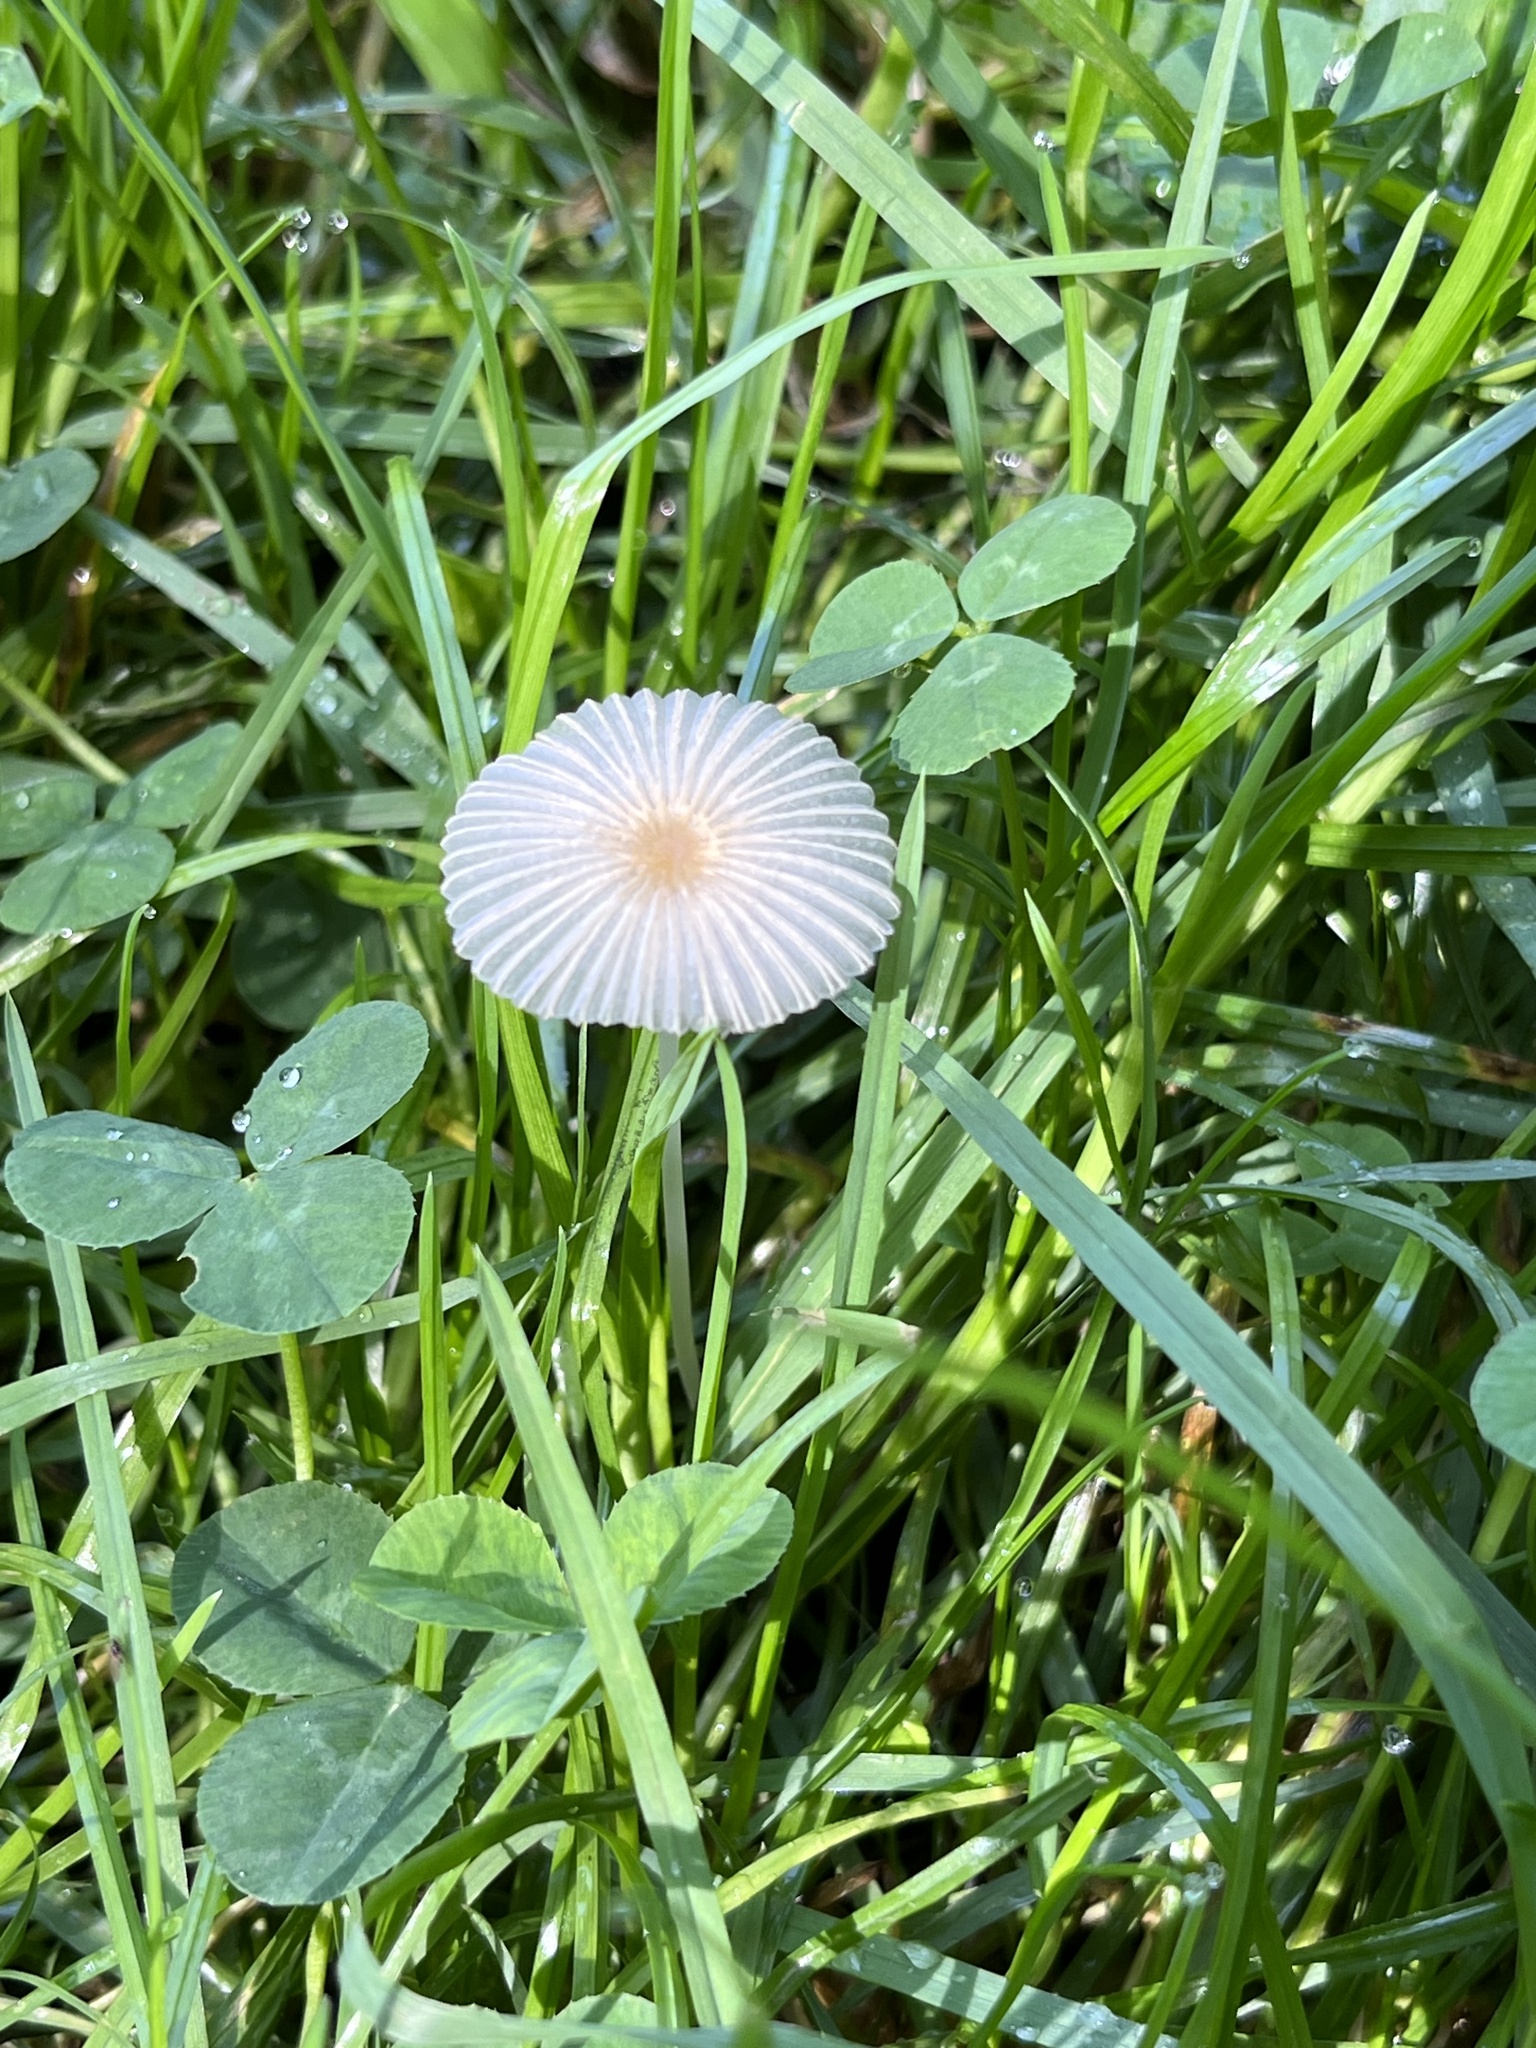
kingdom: Fungi
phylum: Basidiomycota
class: Agaricomycetes
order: Agaricales
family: Psathyrellaceae
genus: Parasola
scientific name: Parasola plicatilis
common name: Pleated inkcap
